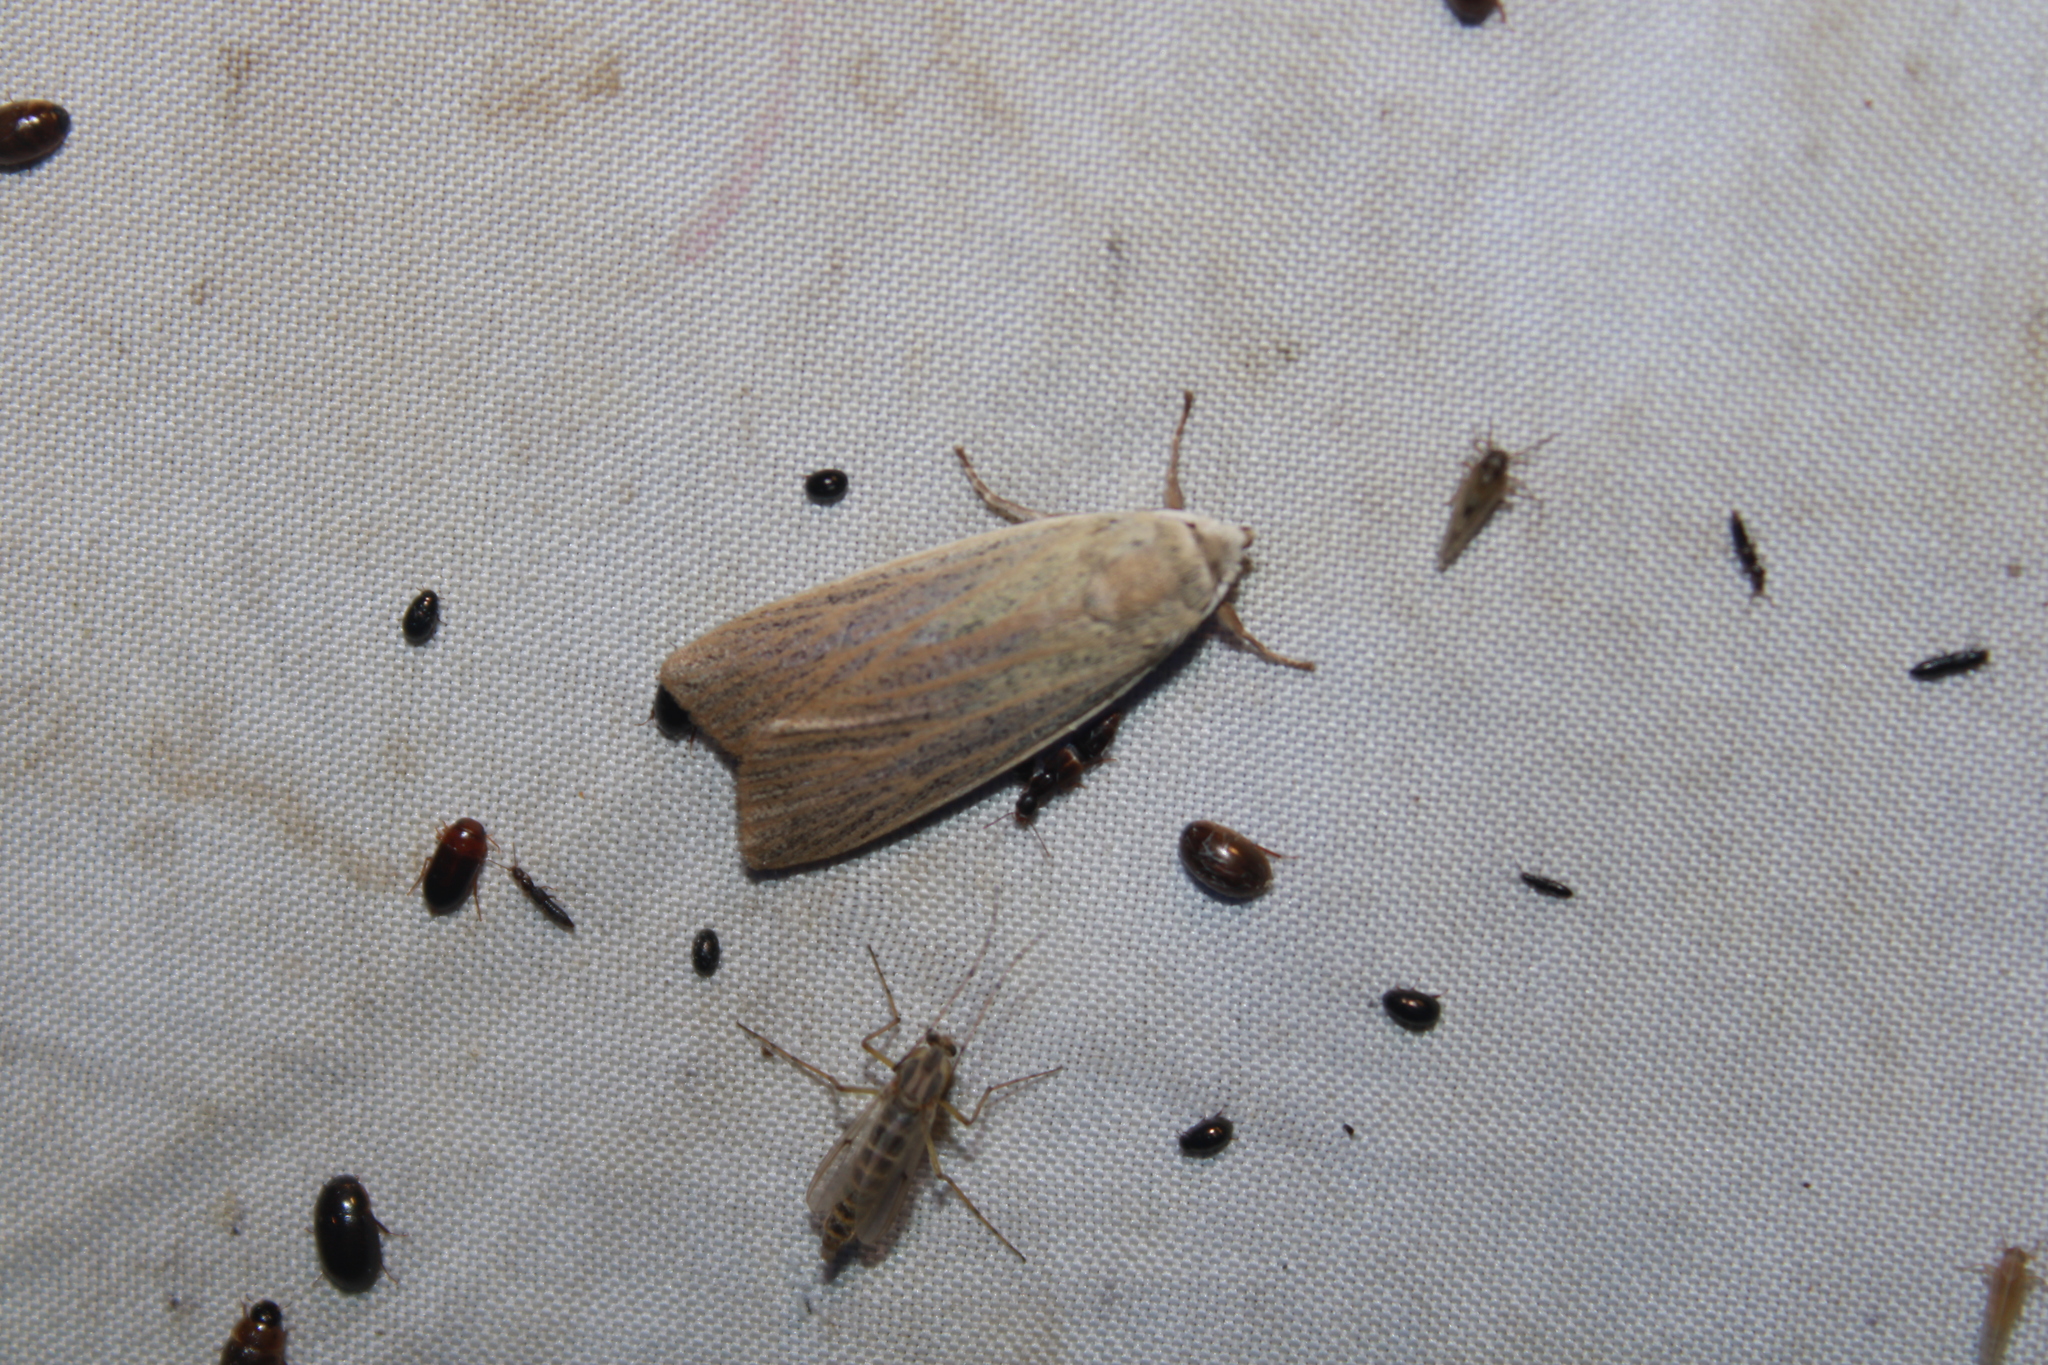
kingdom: Animalia
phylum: Arthropoda
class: Insecta
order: Lepidoptera
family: Erebidae
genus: Palpidia
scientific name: Palpidia pallidior
